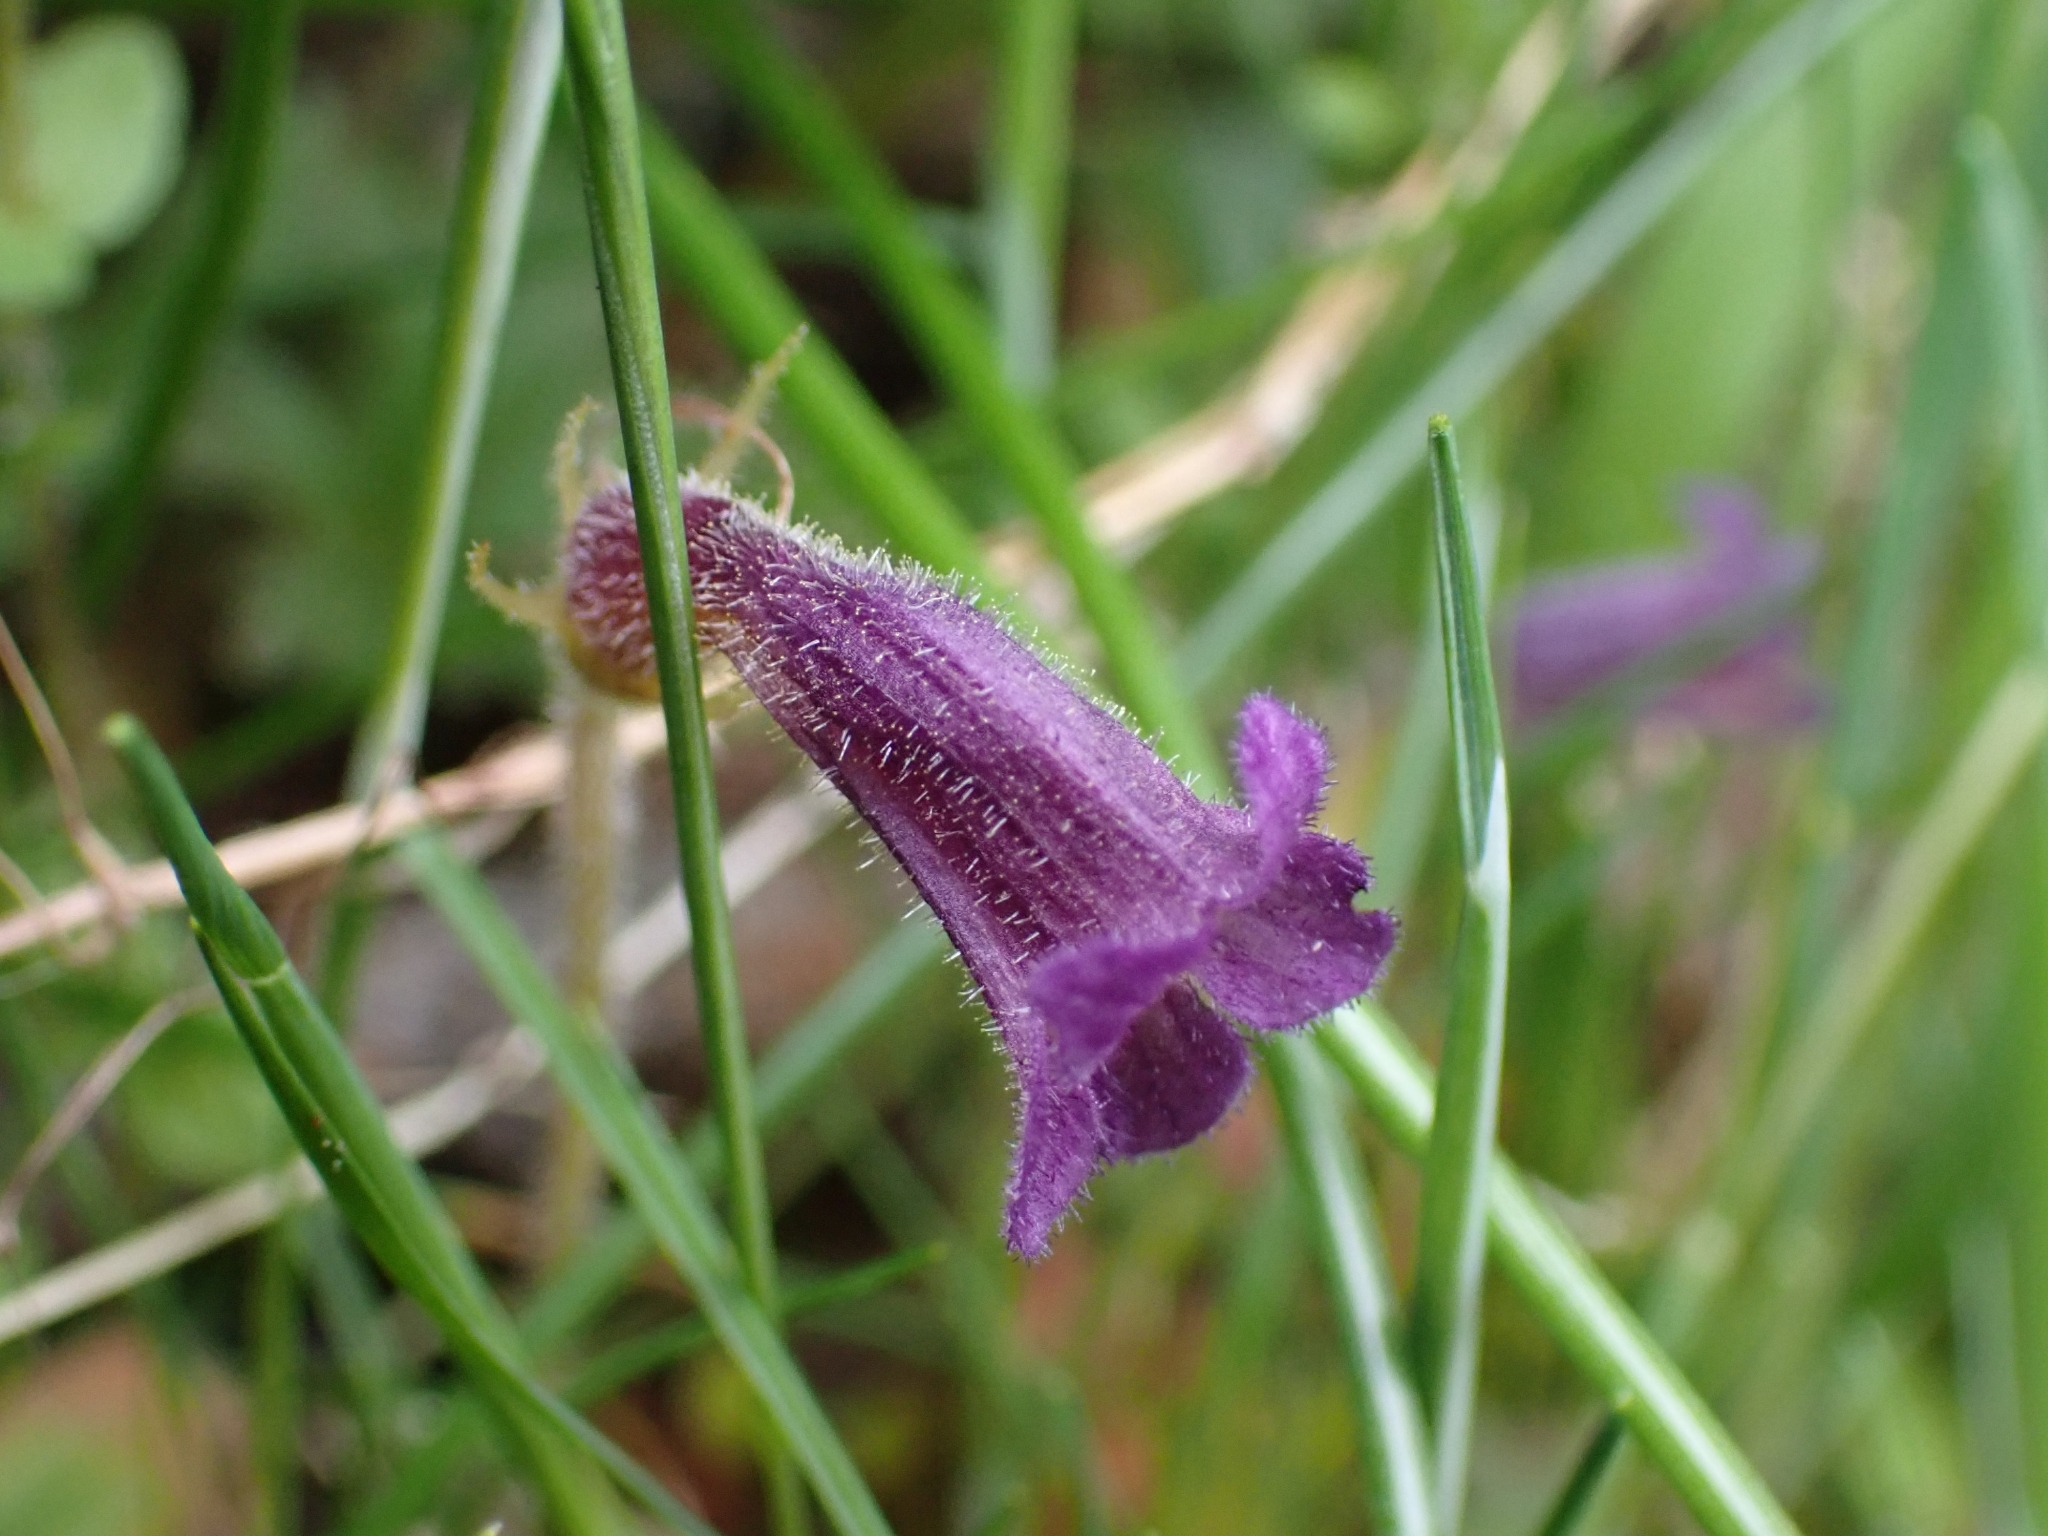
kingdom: Plantae
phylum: Tracheophyta
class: Magnoliopsida
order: Lamiales
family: Orobanchaceae
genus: Aphyllon
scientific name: Aphyllon uniflorum
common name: One-flowered broomrape
